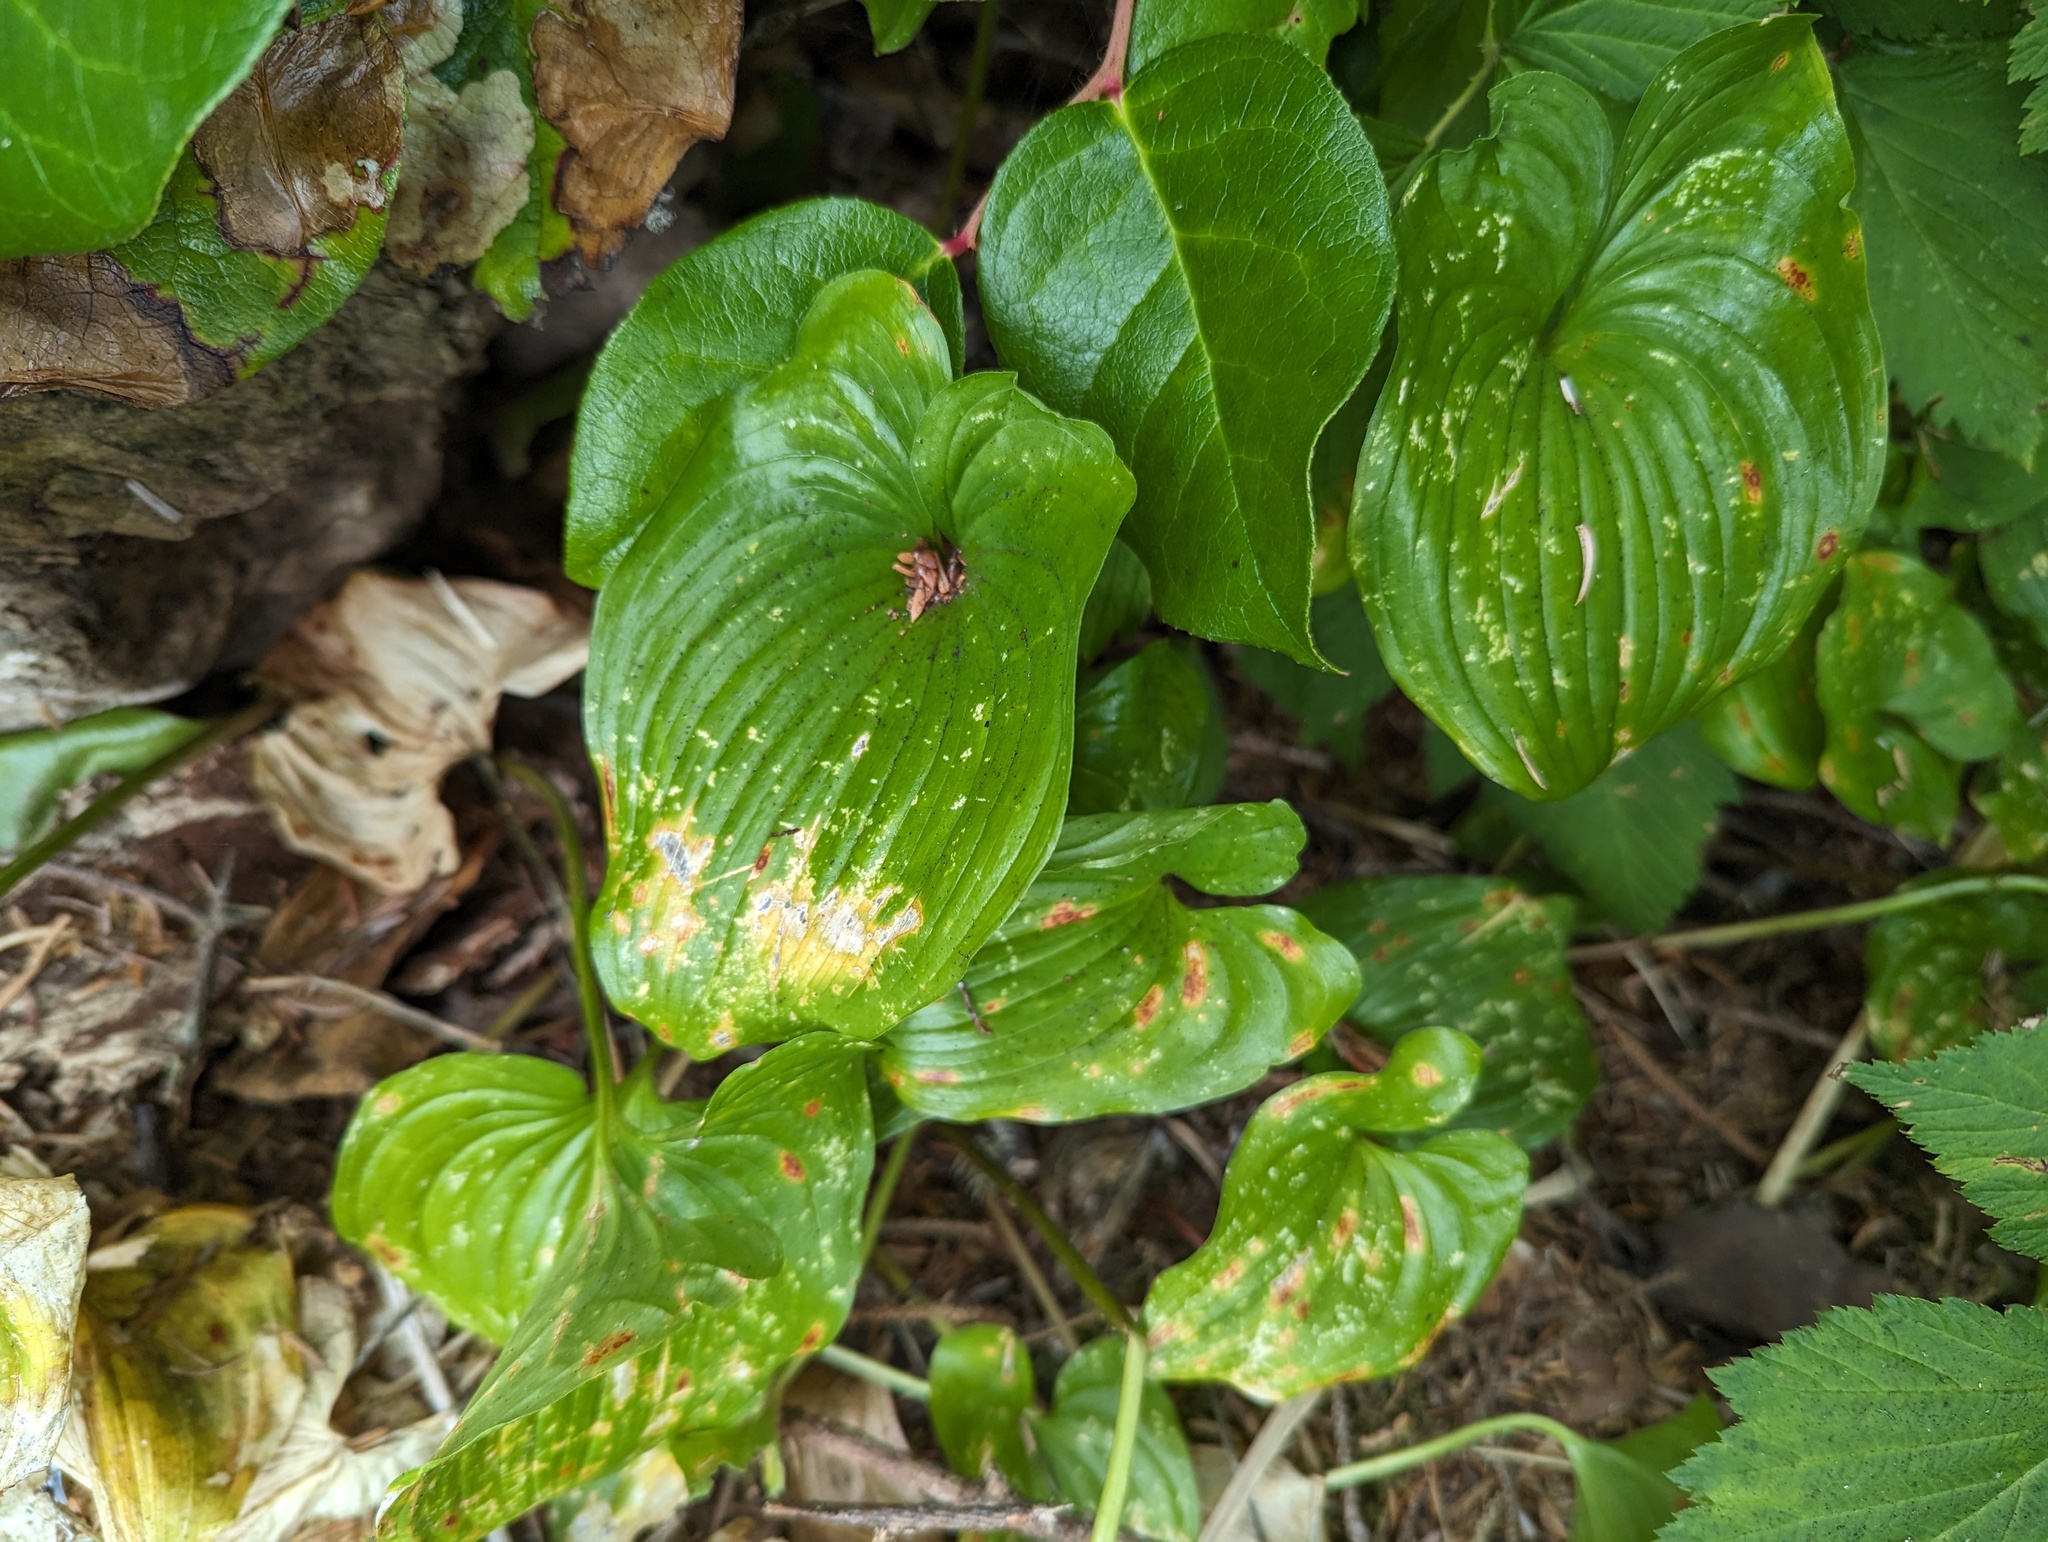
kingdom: Plantae
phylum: Tracheophyta
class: Liliopsida
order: Asparagales
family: Asparagaceae
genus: Maianthemum
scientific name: Maianthemum dilatatum
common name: False lily-of-the-valley
